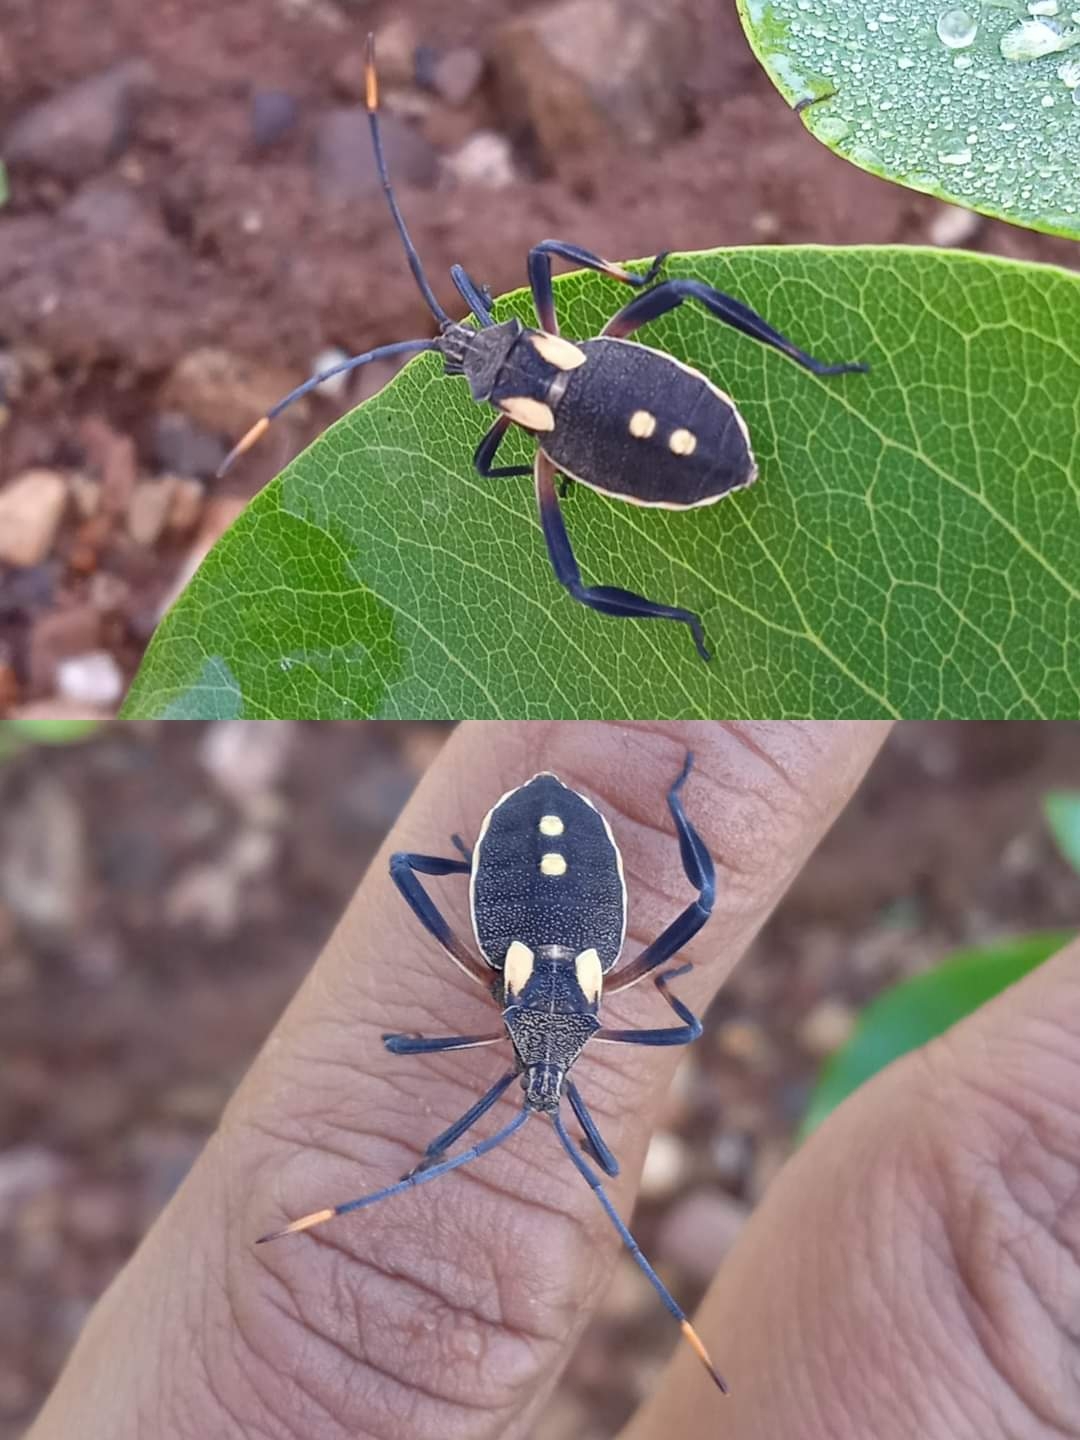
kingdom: Animalia
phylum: Arthropoda
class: Insecta
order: Hemiptera
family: Coreidae
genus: Mictis
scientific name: Mictis profana
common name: Crusader bug
